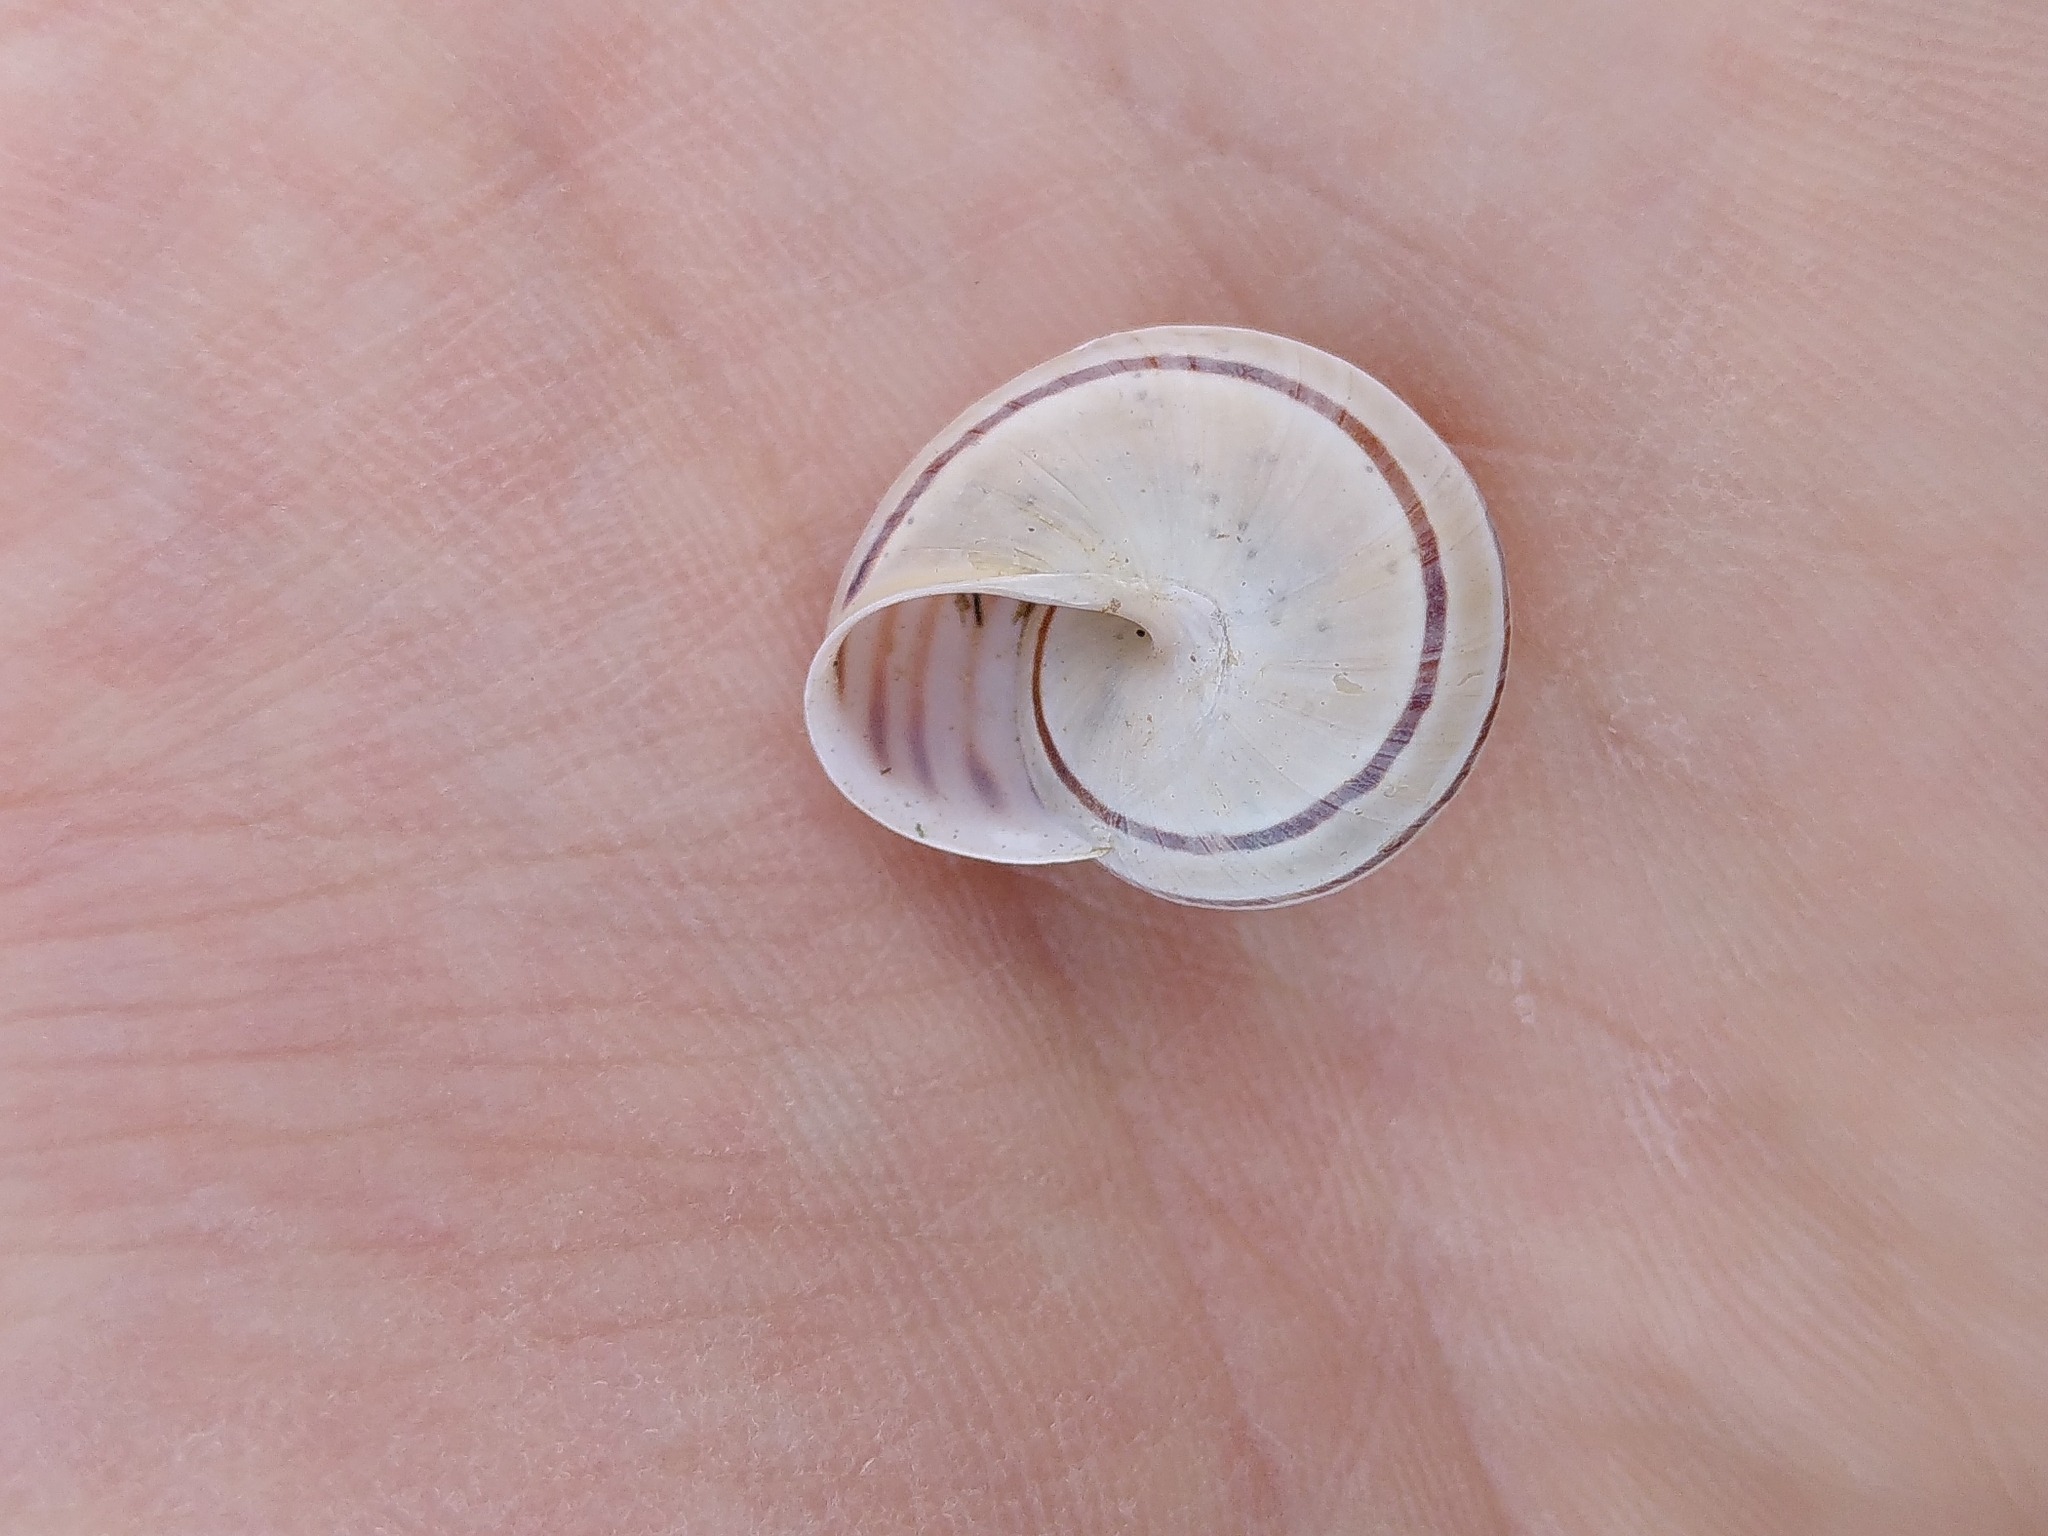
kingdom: Animalia
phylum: Mollusca
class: Gastropoda
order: Stylommatophora
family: Helicidae
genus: Pseudotachea
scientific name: Pseudotachea splendida
